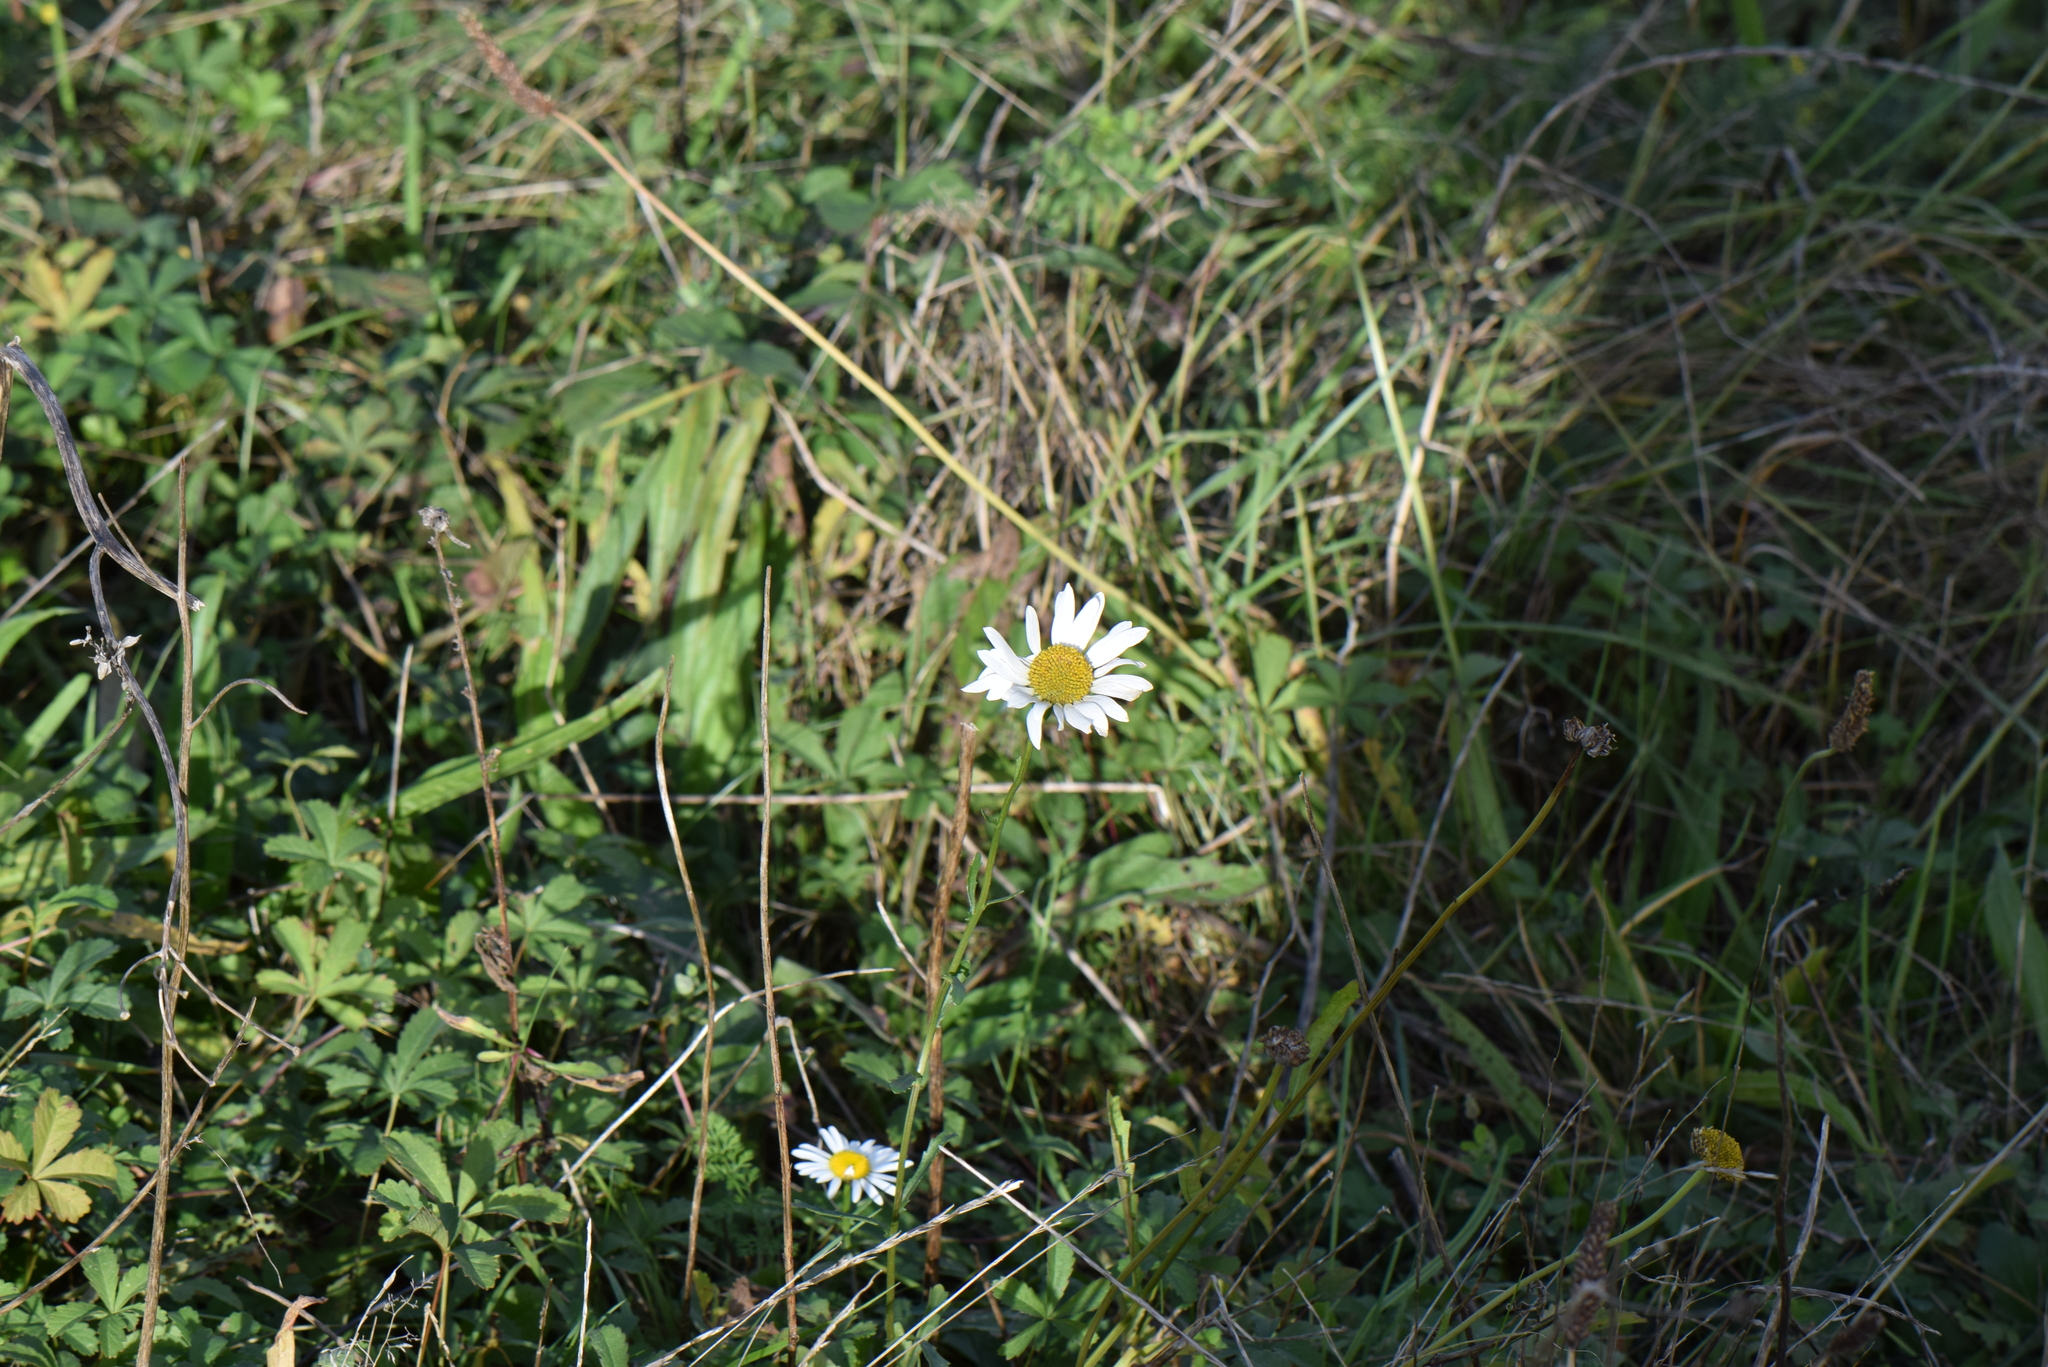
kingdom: Plantae
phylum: Tracheophyta
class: Magnoliopsida
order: Asterales
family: Asteraceae
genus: Leucanthemum
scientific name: Leucanthemum vulgare
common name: Oxeye daisy
